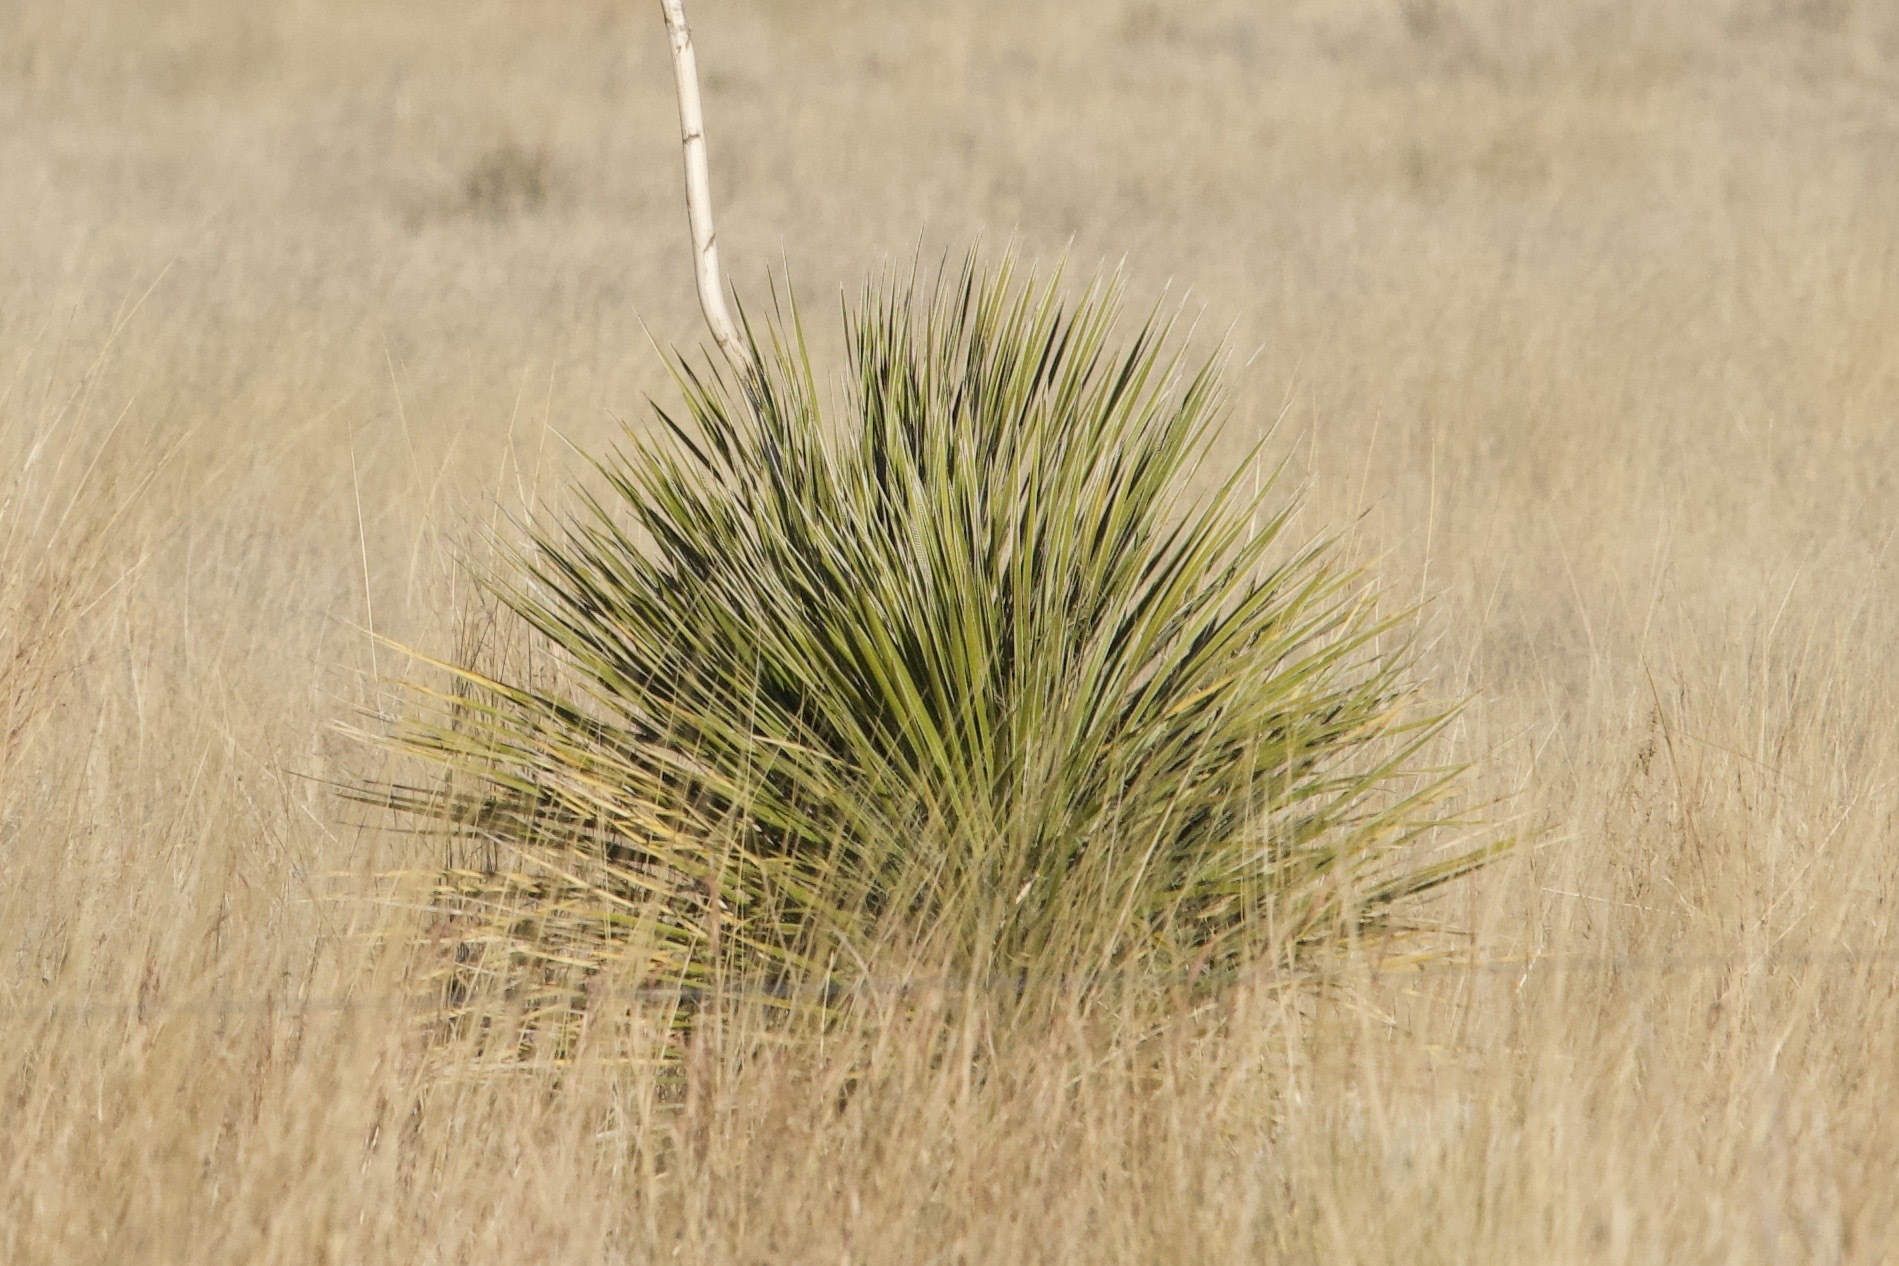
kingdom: Plantae
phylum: Tracheophyta
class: Liliopsida
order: Asparagales
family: Asparagaceae
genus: Yucca
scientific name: Yucca elata
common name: Palmella
